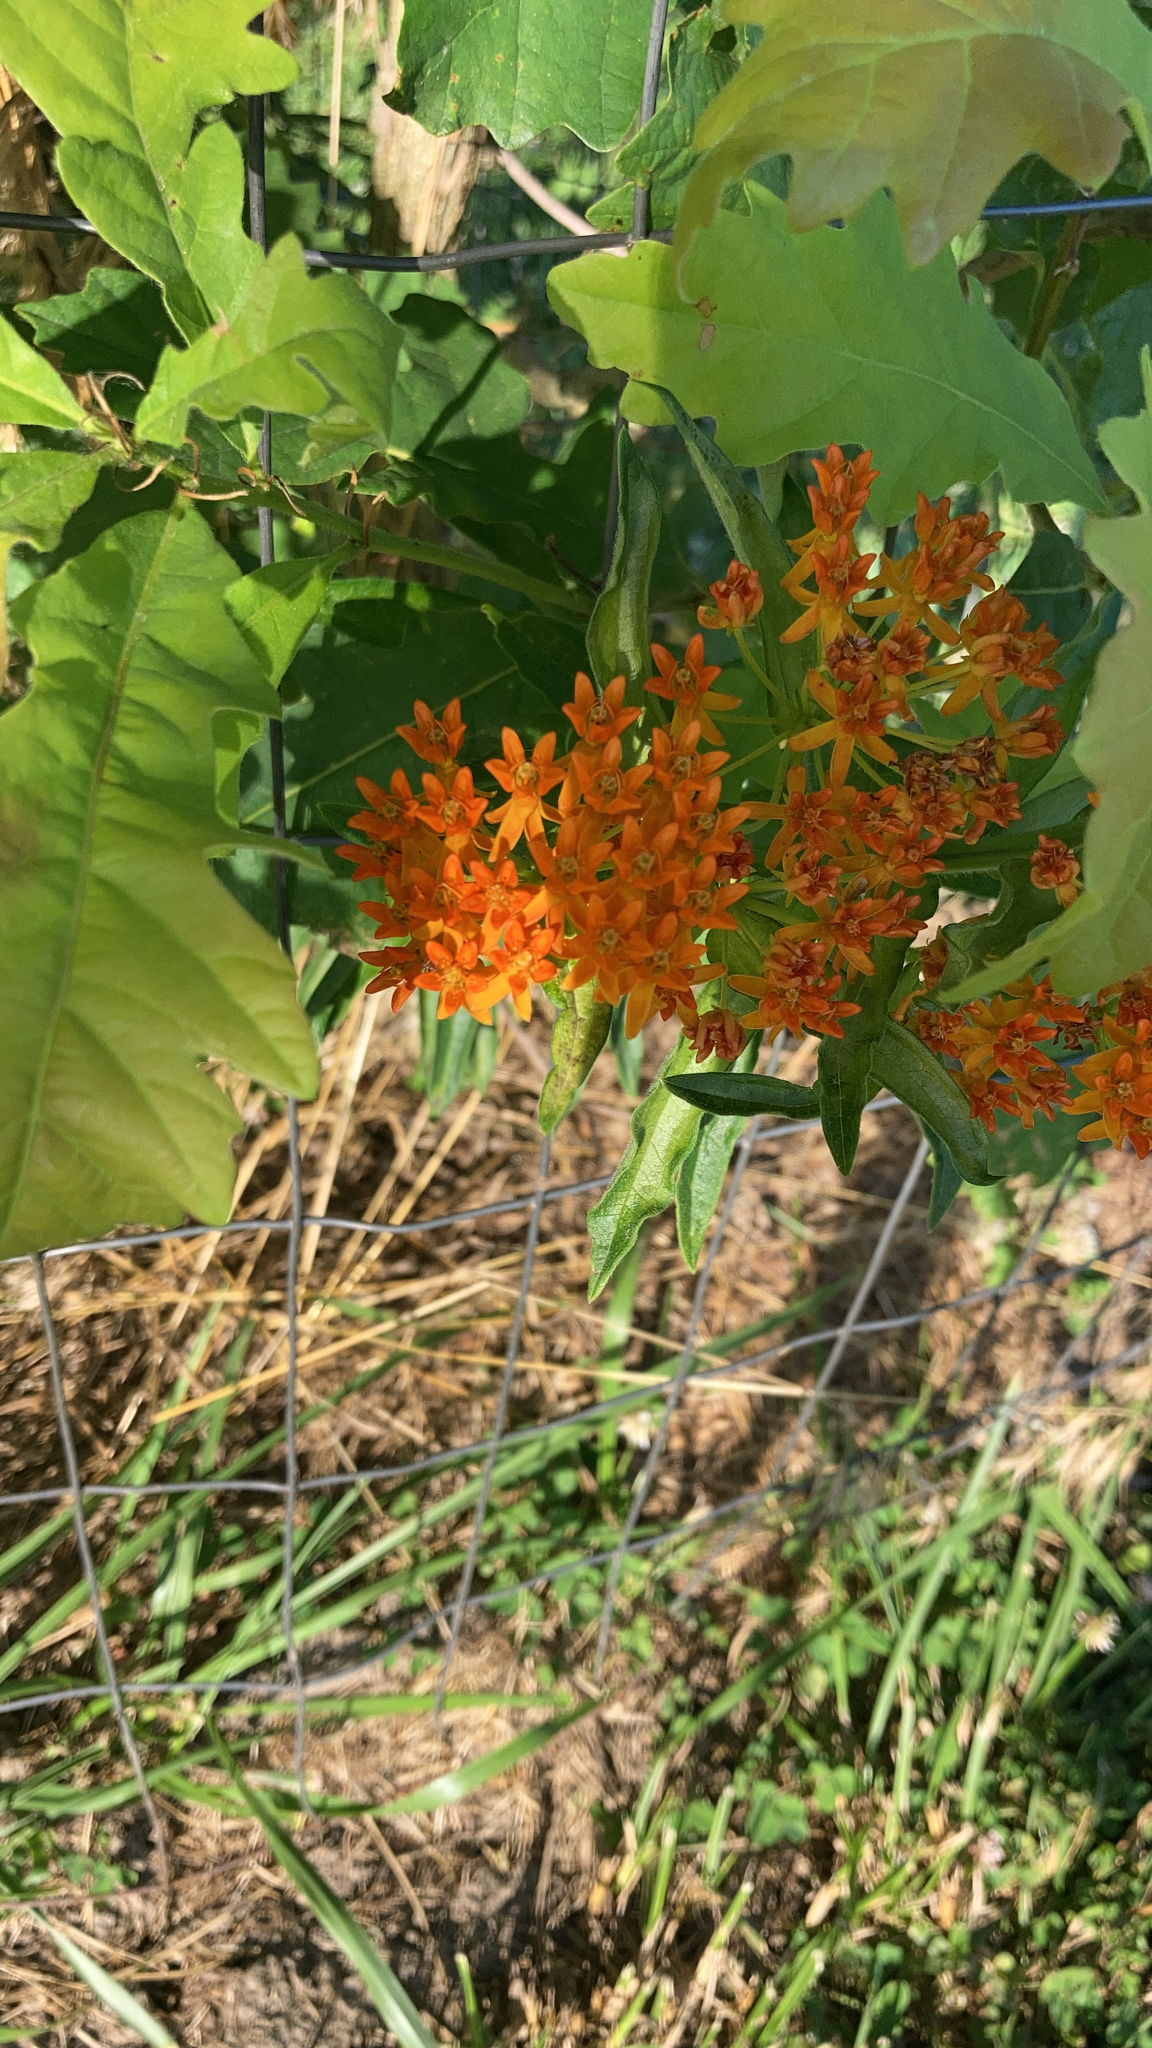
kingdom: Plantae
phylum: Tracheophyta
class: Magnoliopsida
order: Gentianales
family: Apocynaceae
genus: Asclepias
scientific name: Asclepias tuberosa
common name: Butterfly milkweed
